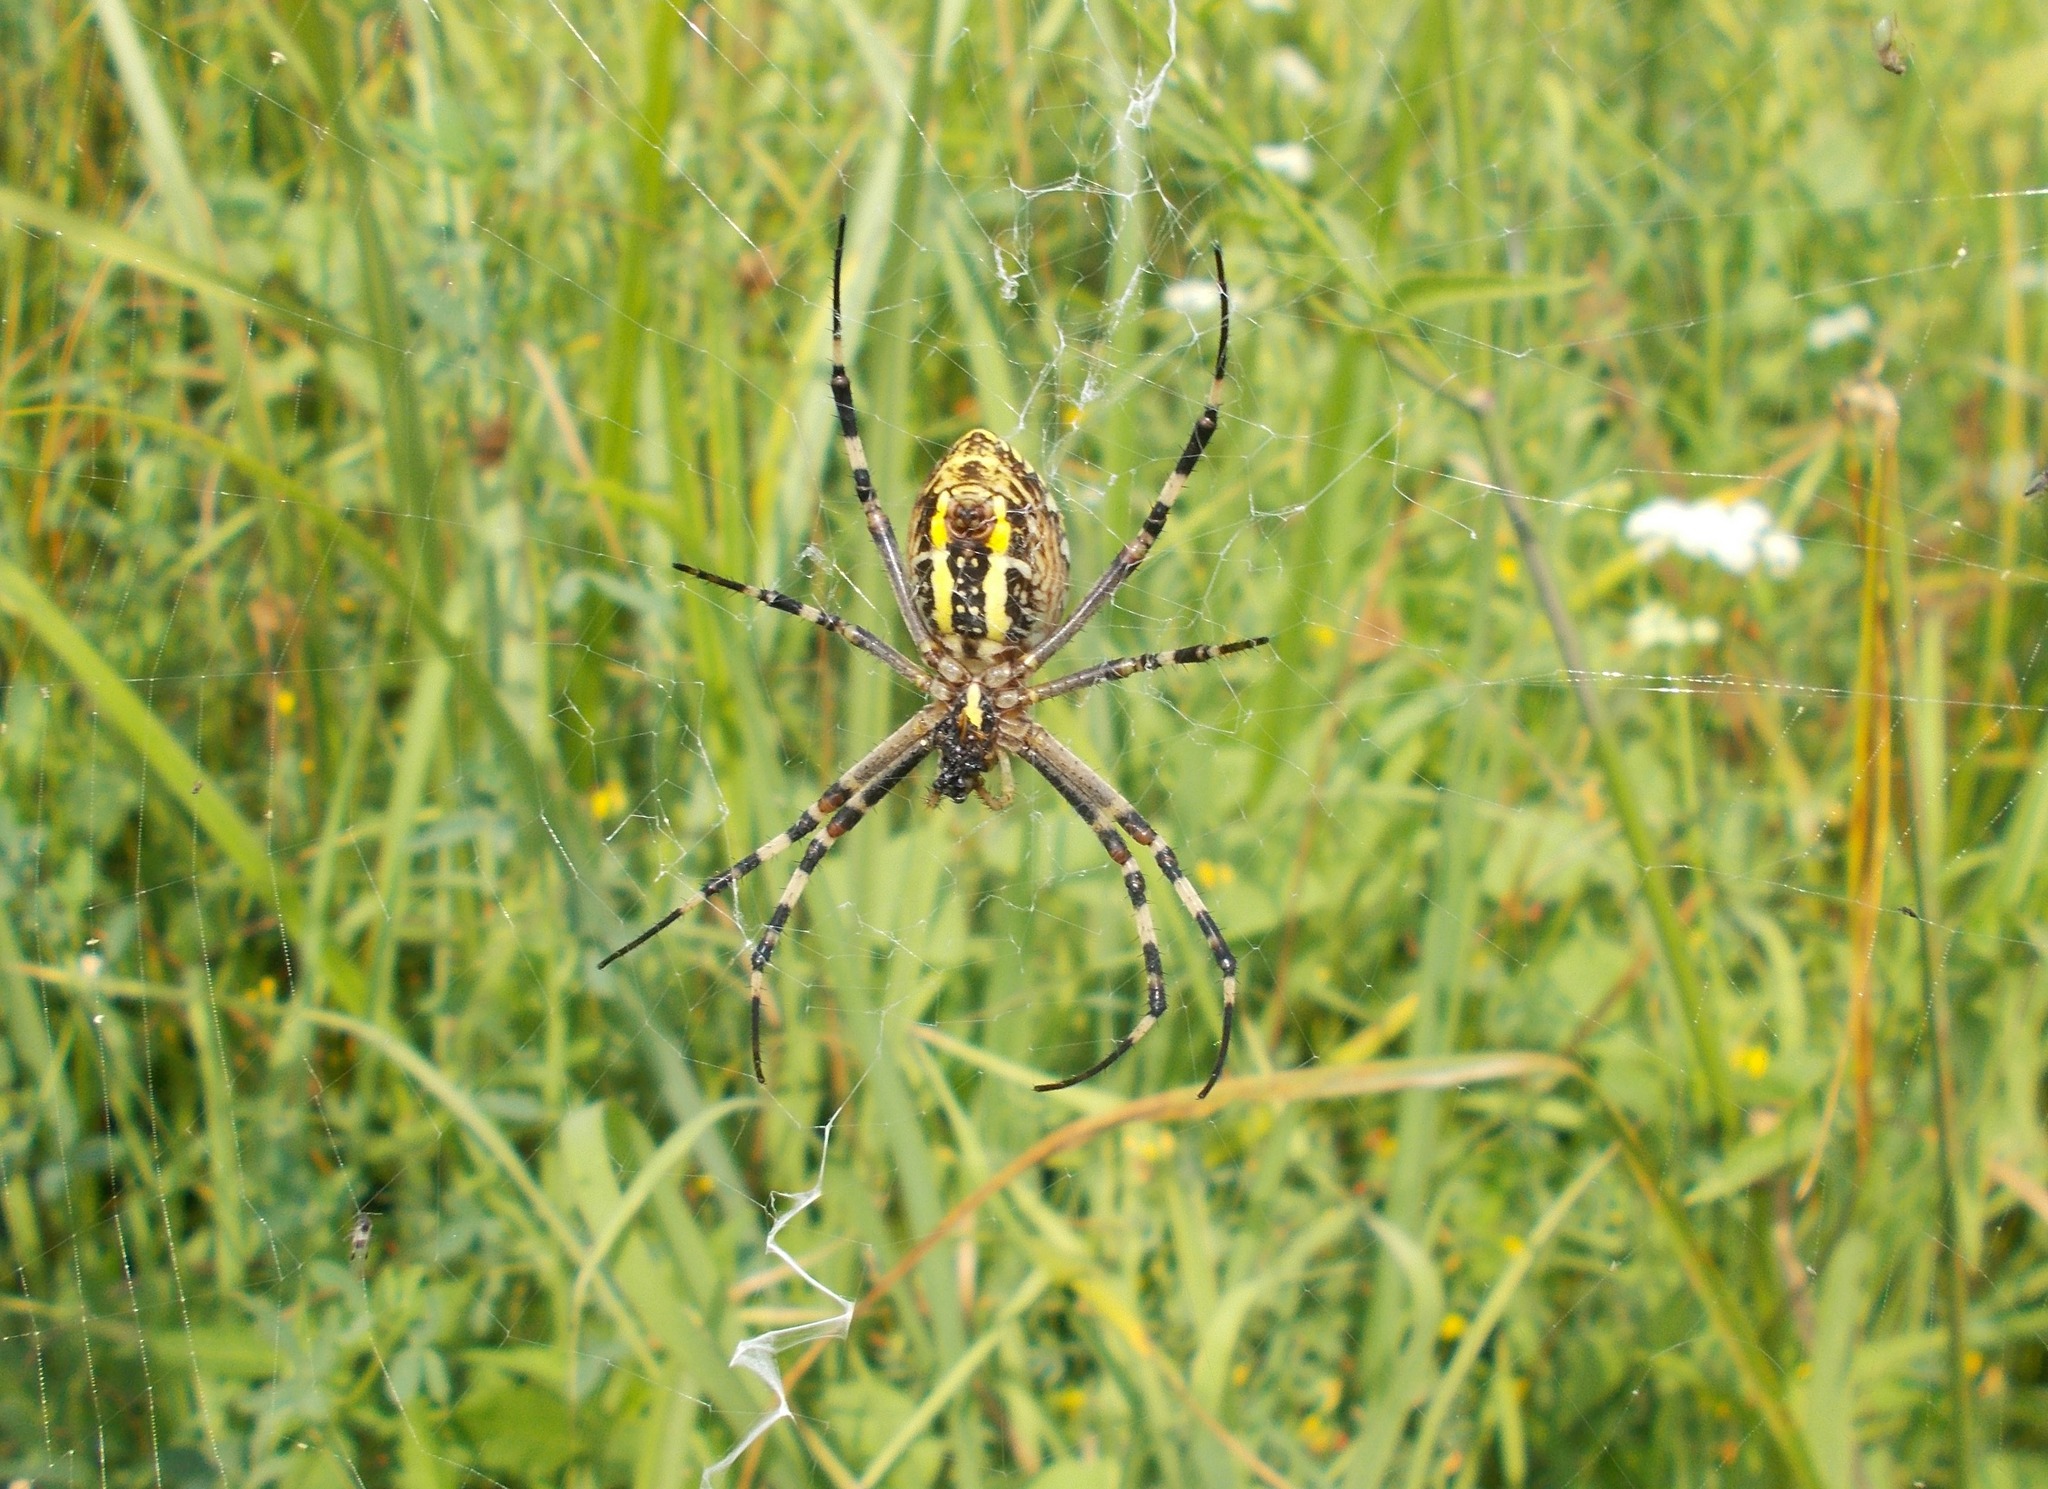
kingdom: Animalia
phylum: Arthropoda
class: Arachnida
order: Araneae
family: Araneidae
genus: Argiope
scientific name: Argiope bruennichi
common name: Wasp spider
